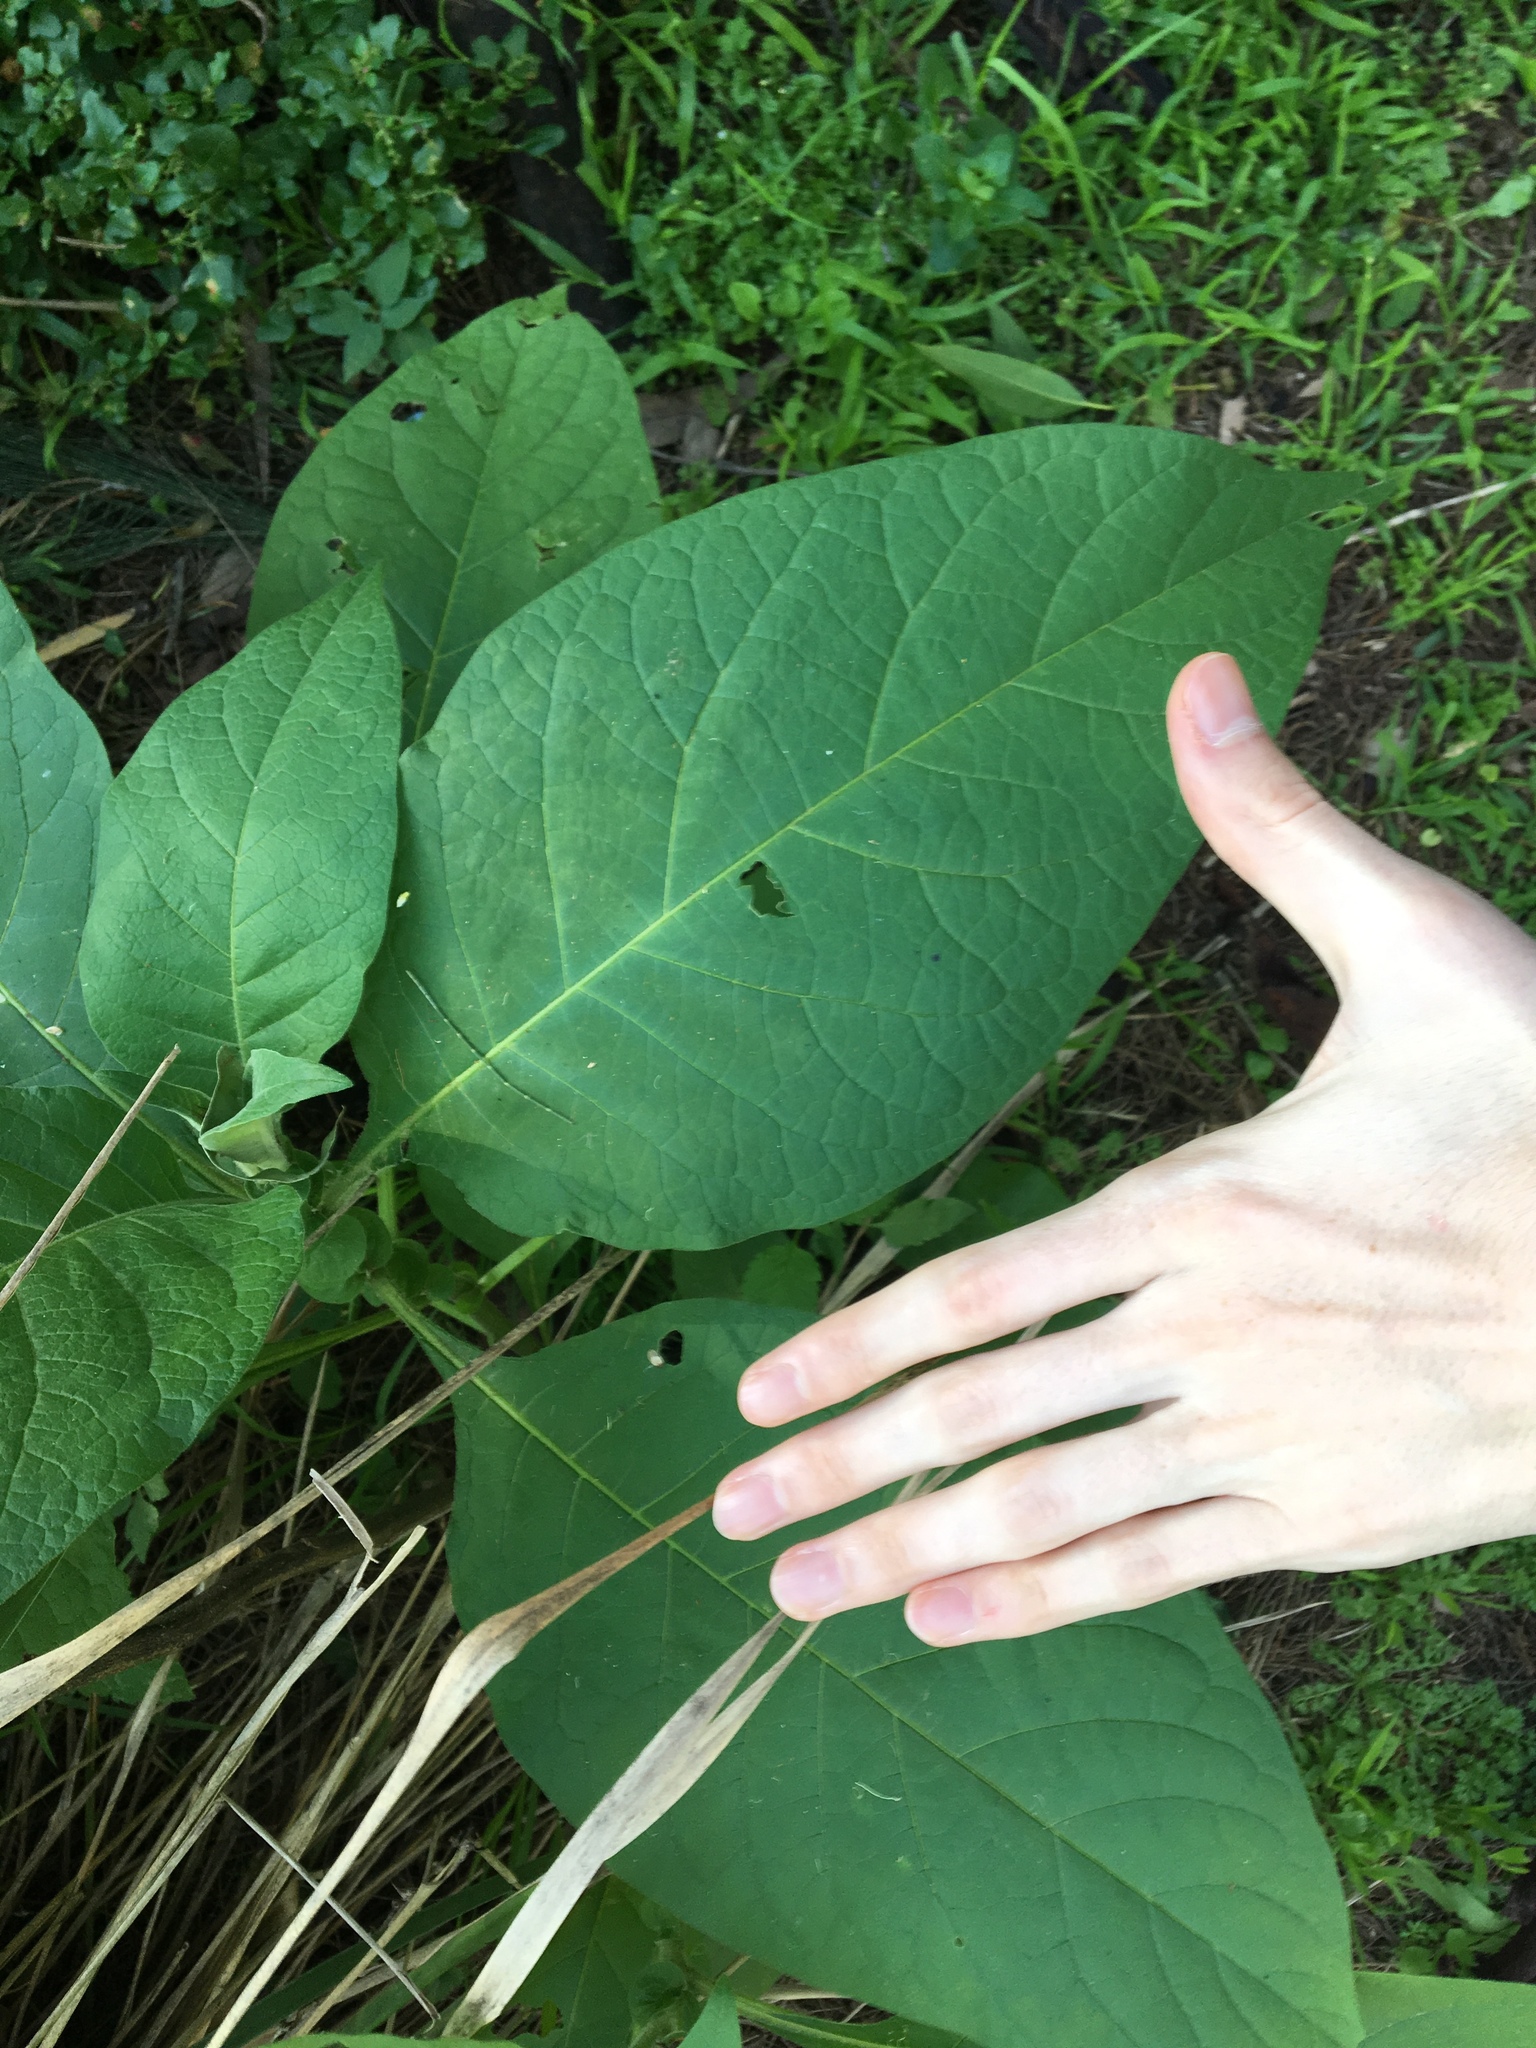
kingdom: Plantae
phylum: Tracheophyta
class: Magnoliopsida
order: Solanales
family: Solanaceae
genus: Solanum
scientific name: Solanum mauritianum
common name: Earleaf nightshade
